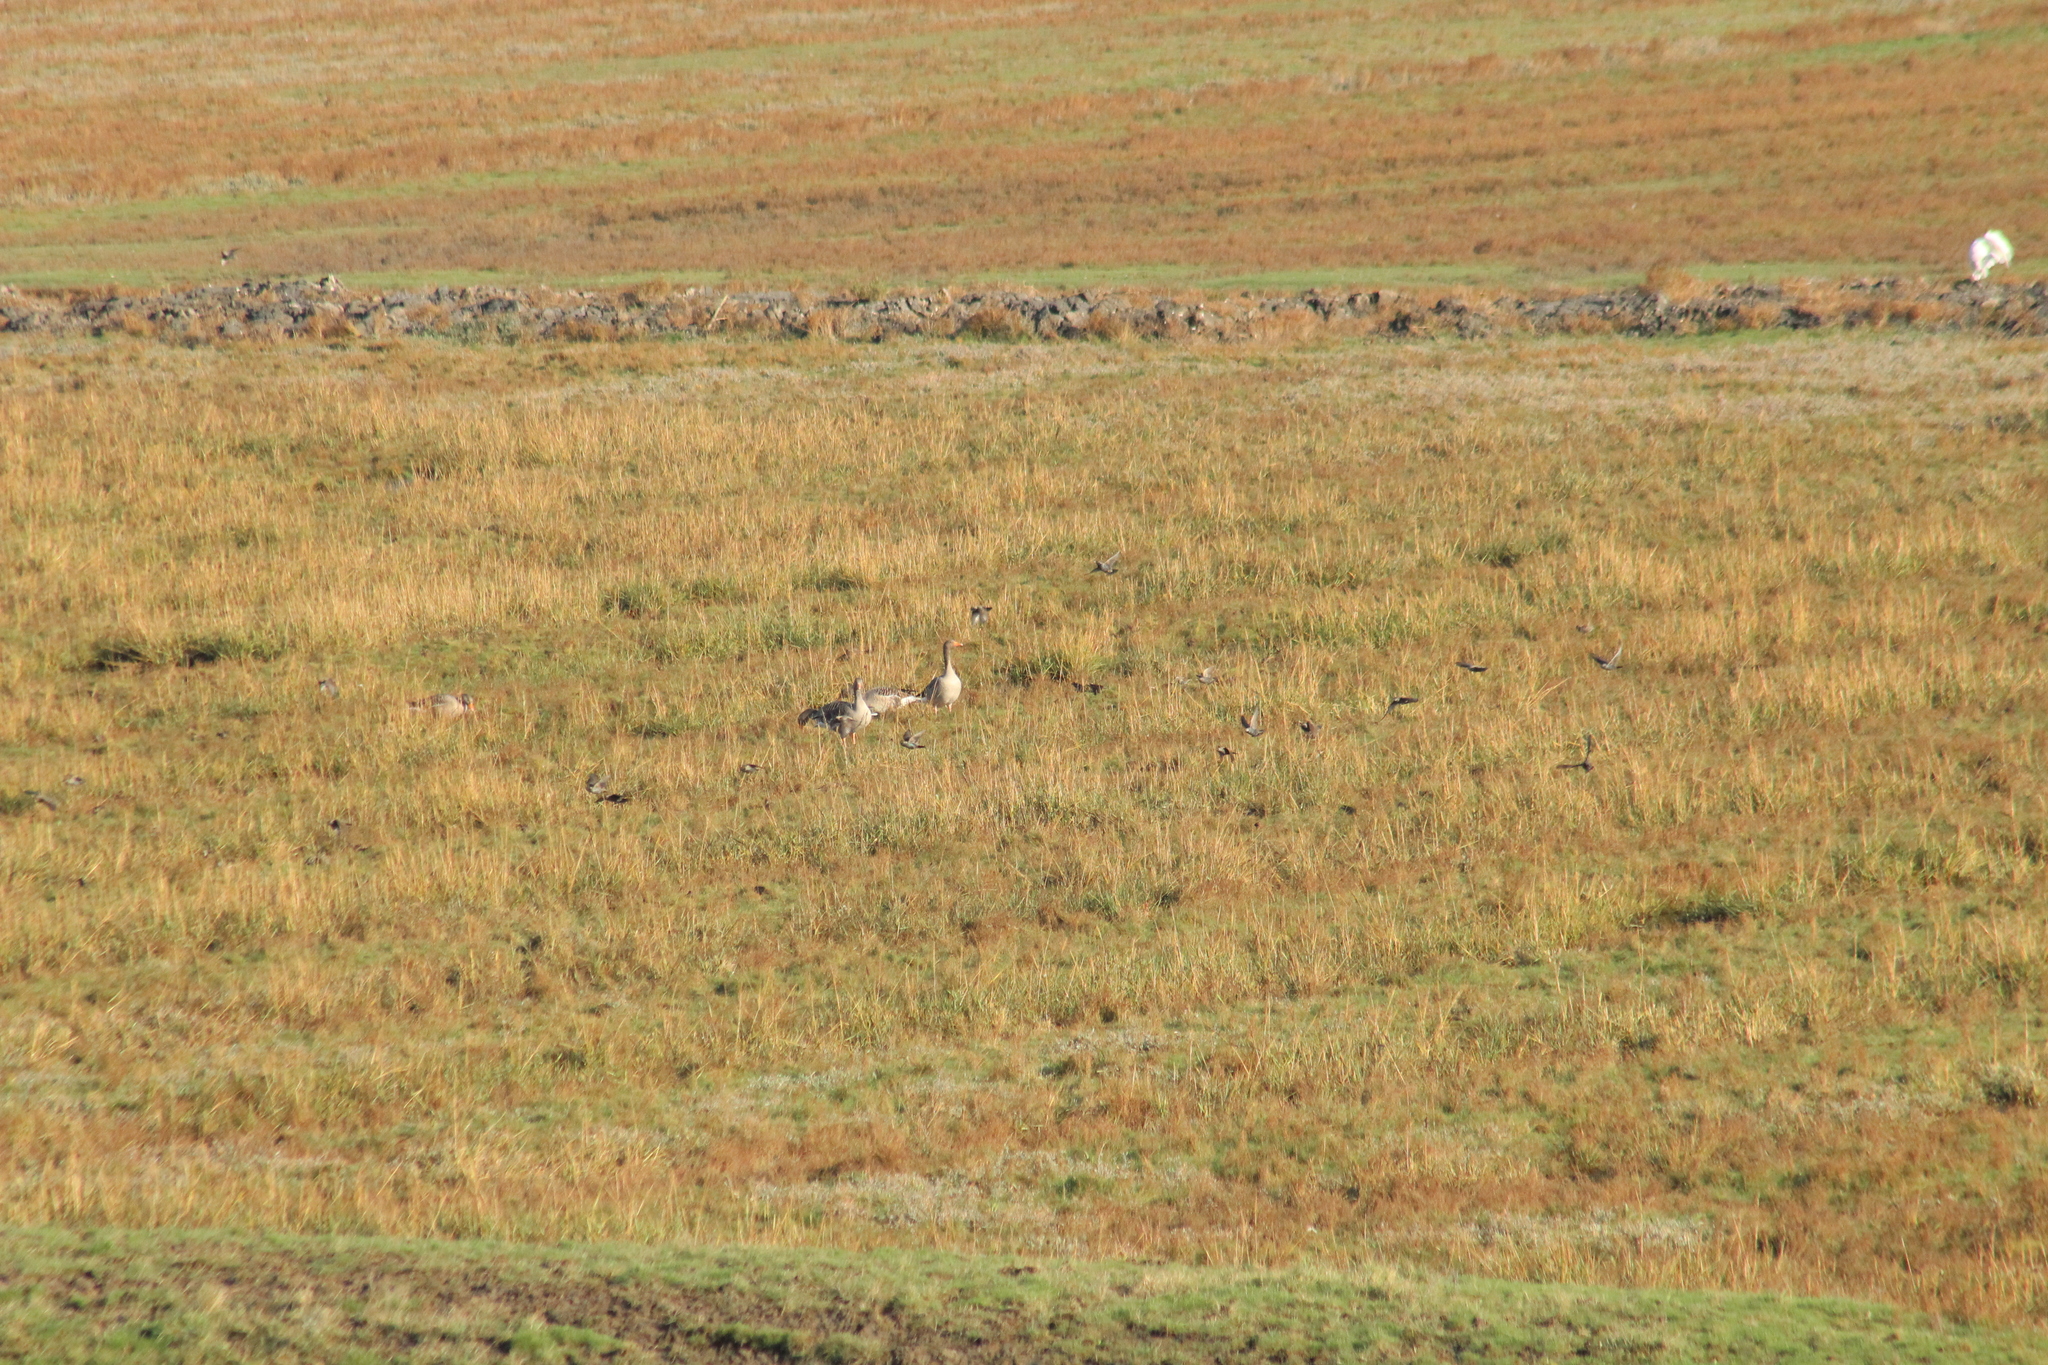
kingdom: Animalia
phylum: Chordata
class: Aves
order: Anseriformes
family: Anatidae
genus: Anser
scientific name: Anser anser
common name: Greylag goose
